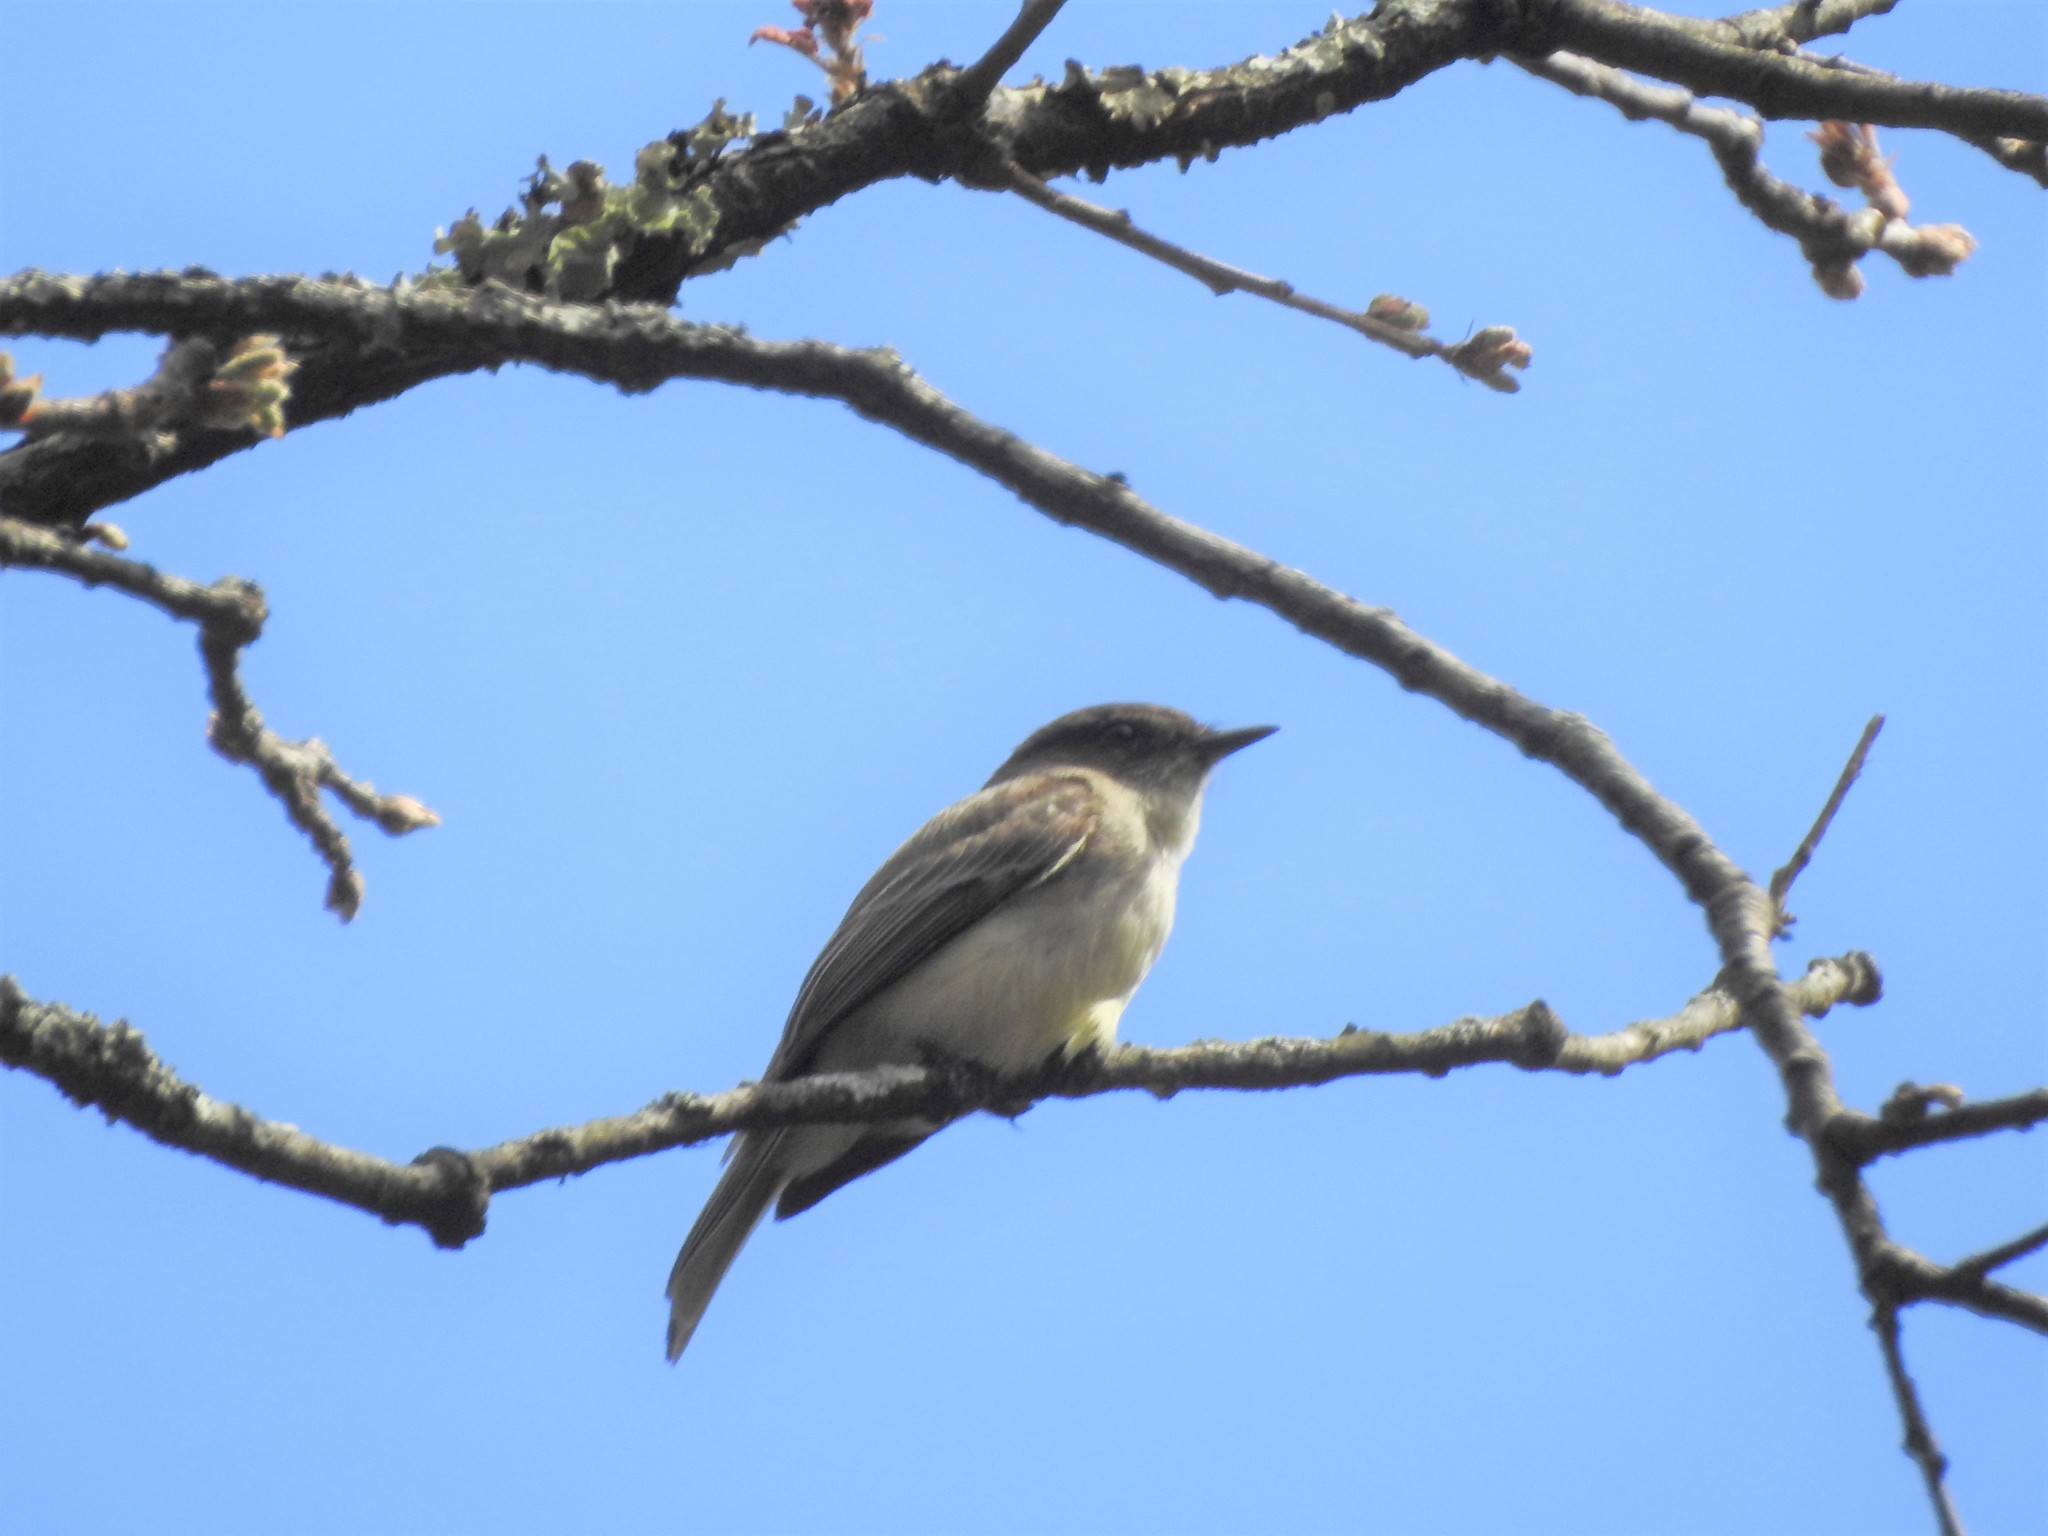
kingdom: Animalia
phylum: Chordata
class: Aves
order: Passeriformes
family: Tyrannidae
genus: Sayornis
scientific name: Sayornis phoebe
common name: Eastern phoebe
